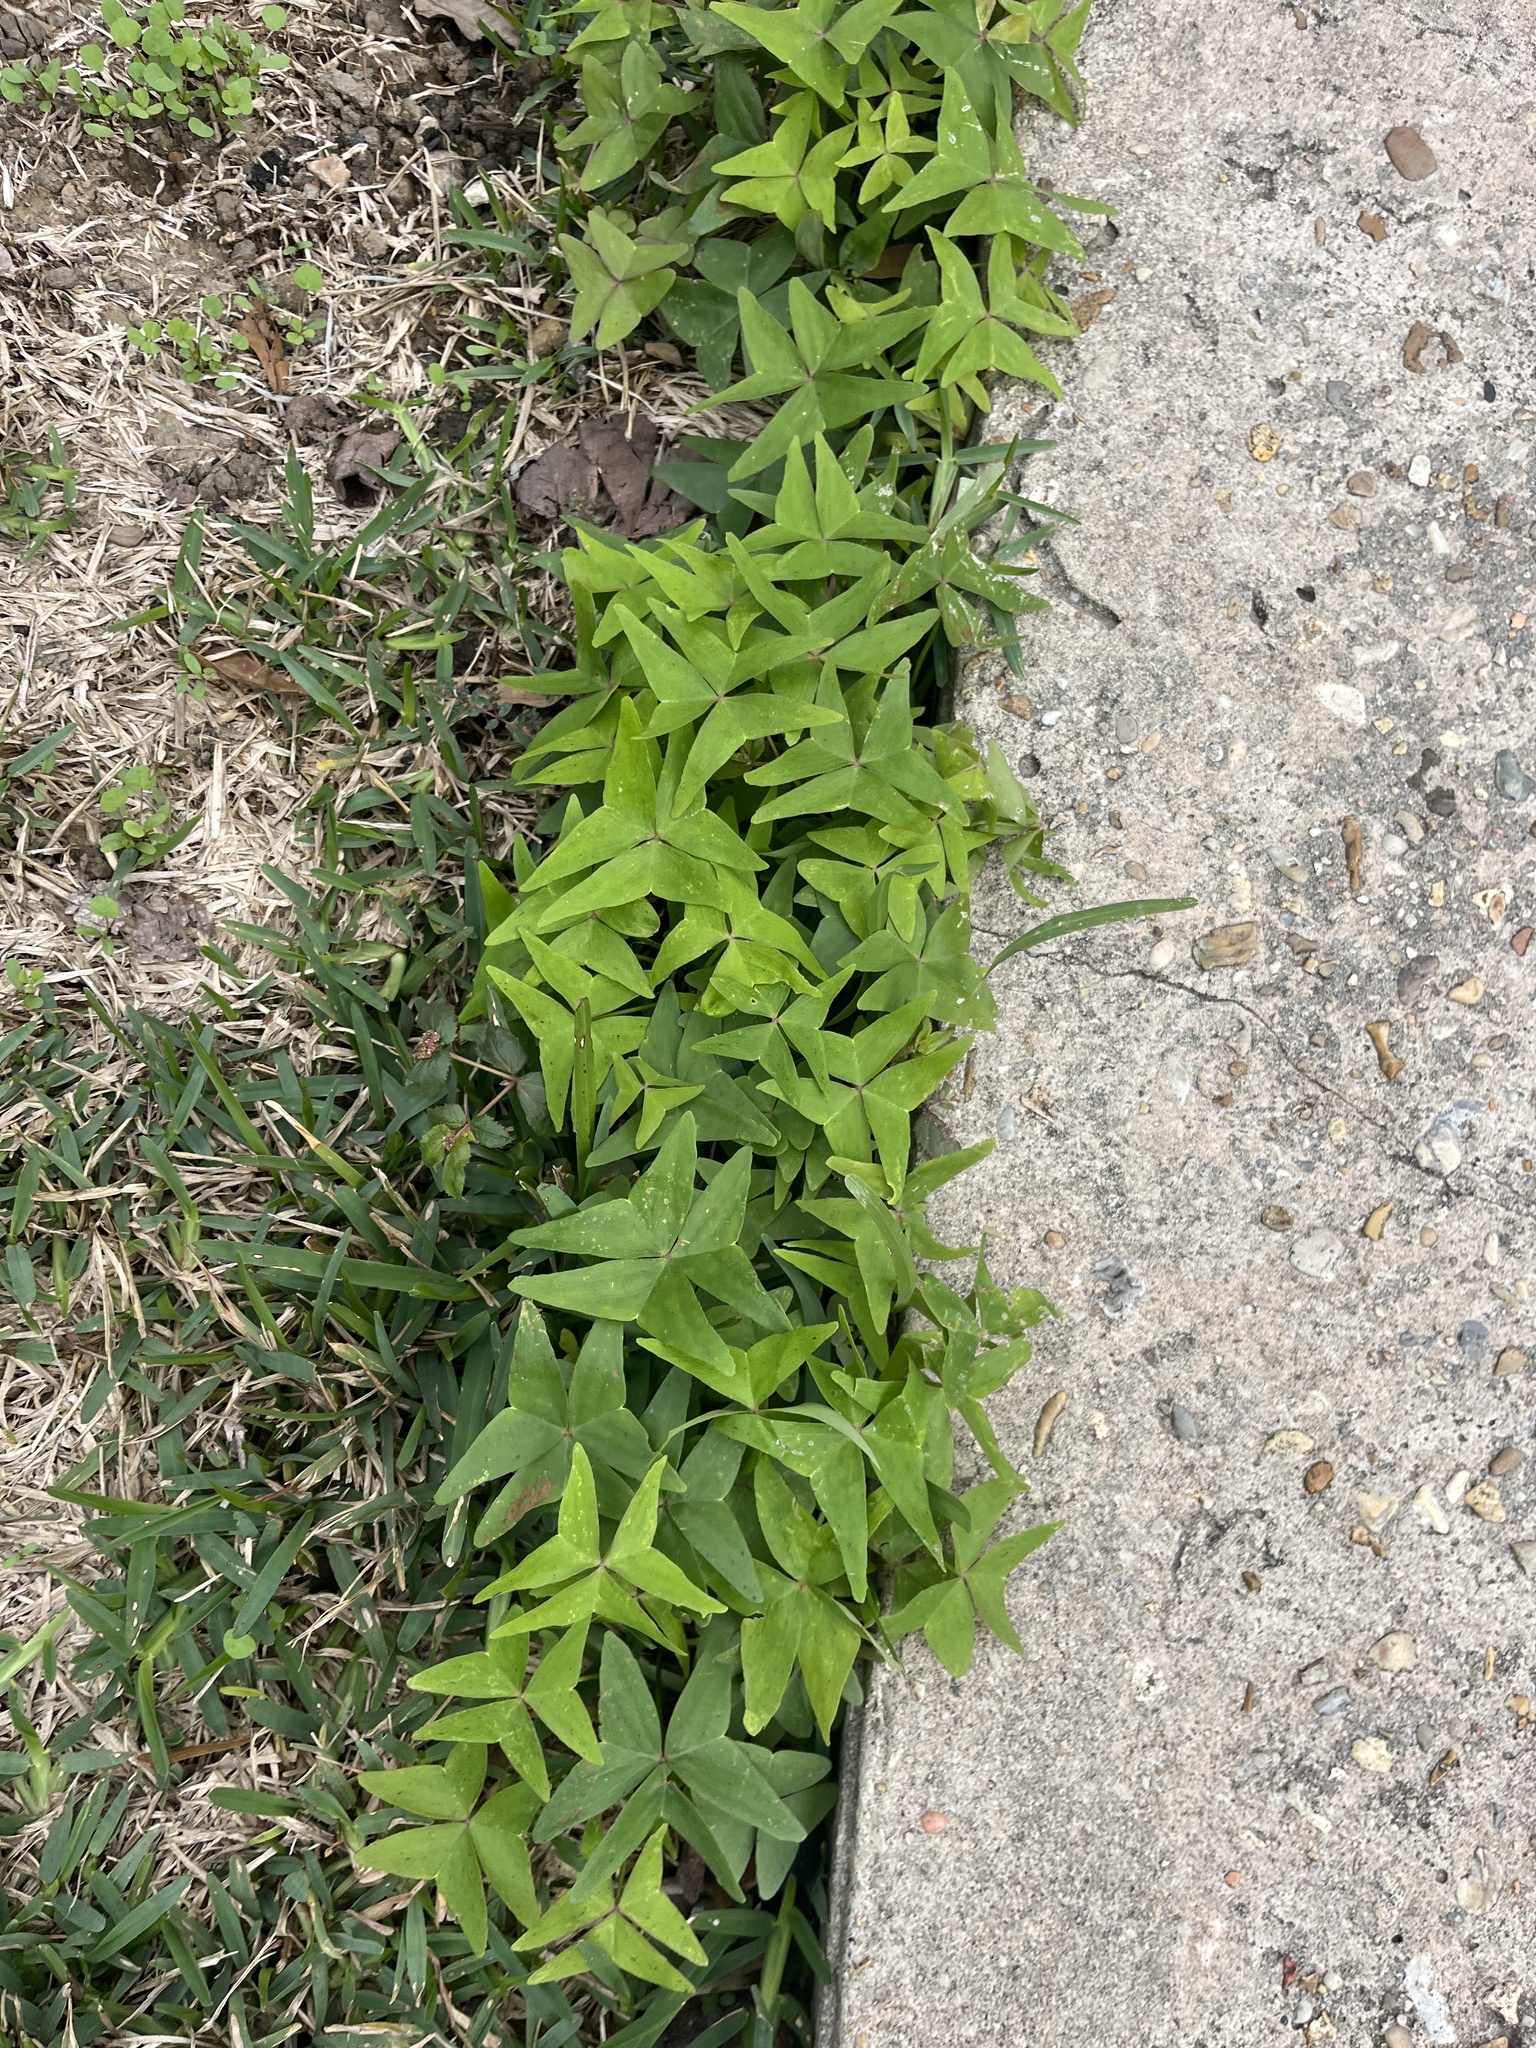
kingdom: Plantae
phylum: Tracheophyta
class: Magnoliopsida
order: Oxalidales
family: Oxalidaceae
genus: Oxalis
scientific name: Oxalis intermedia
